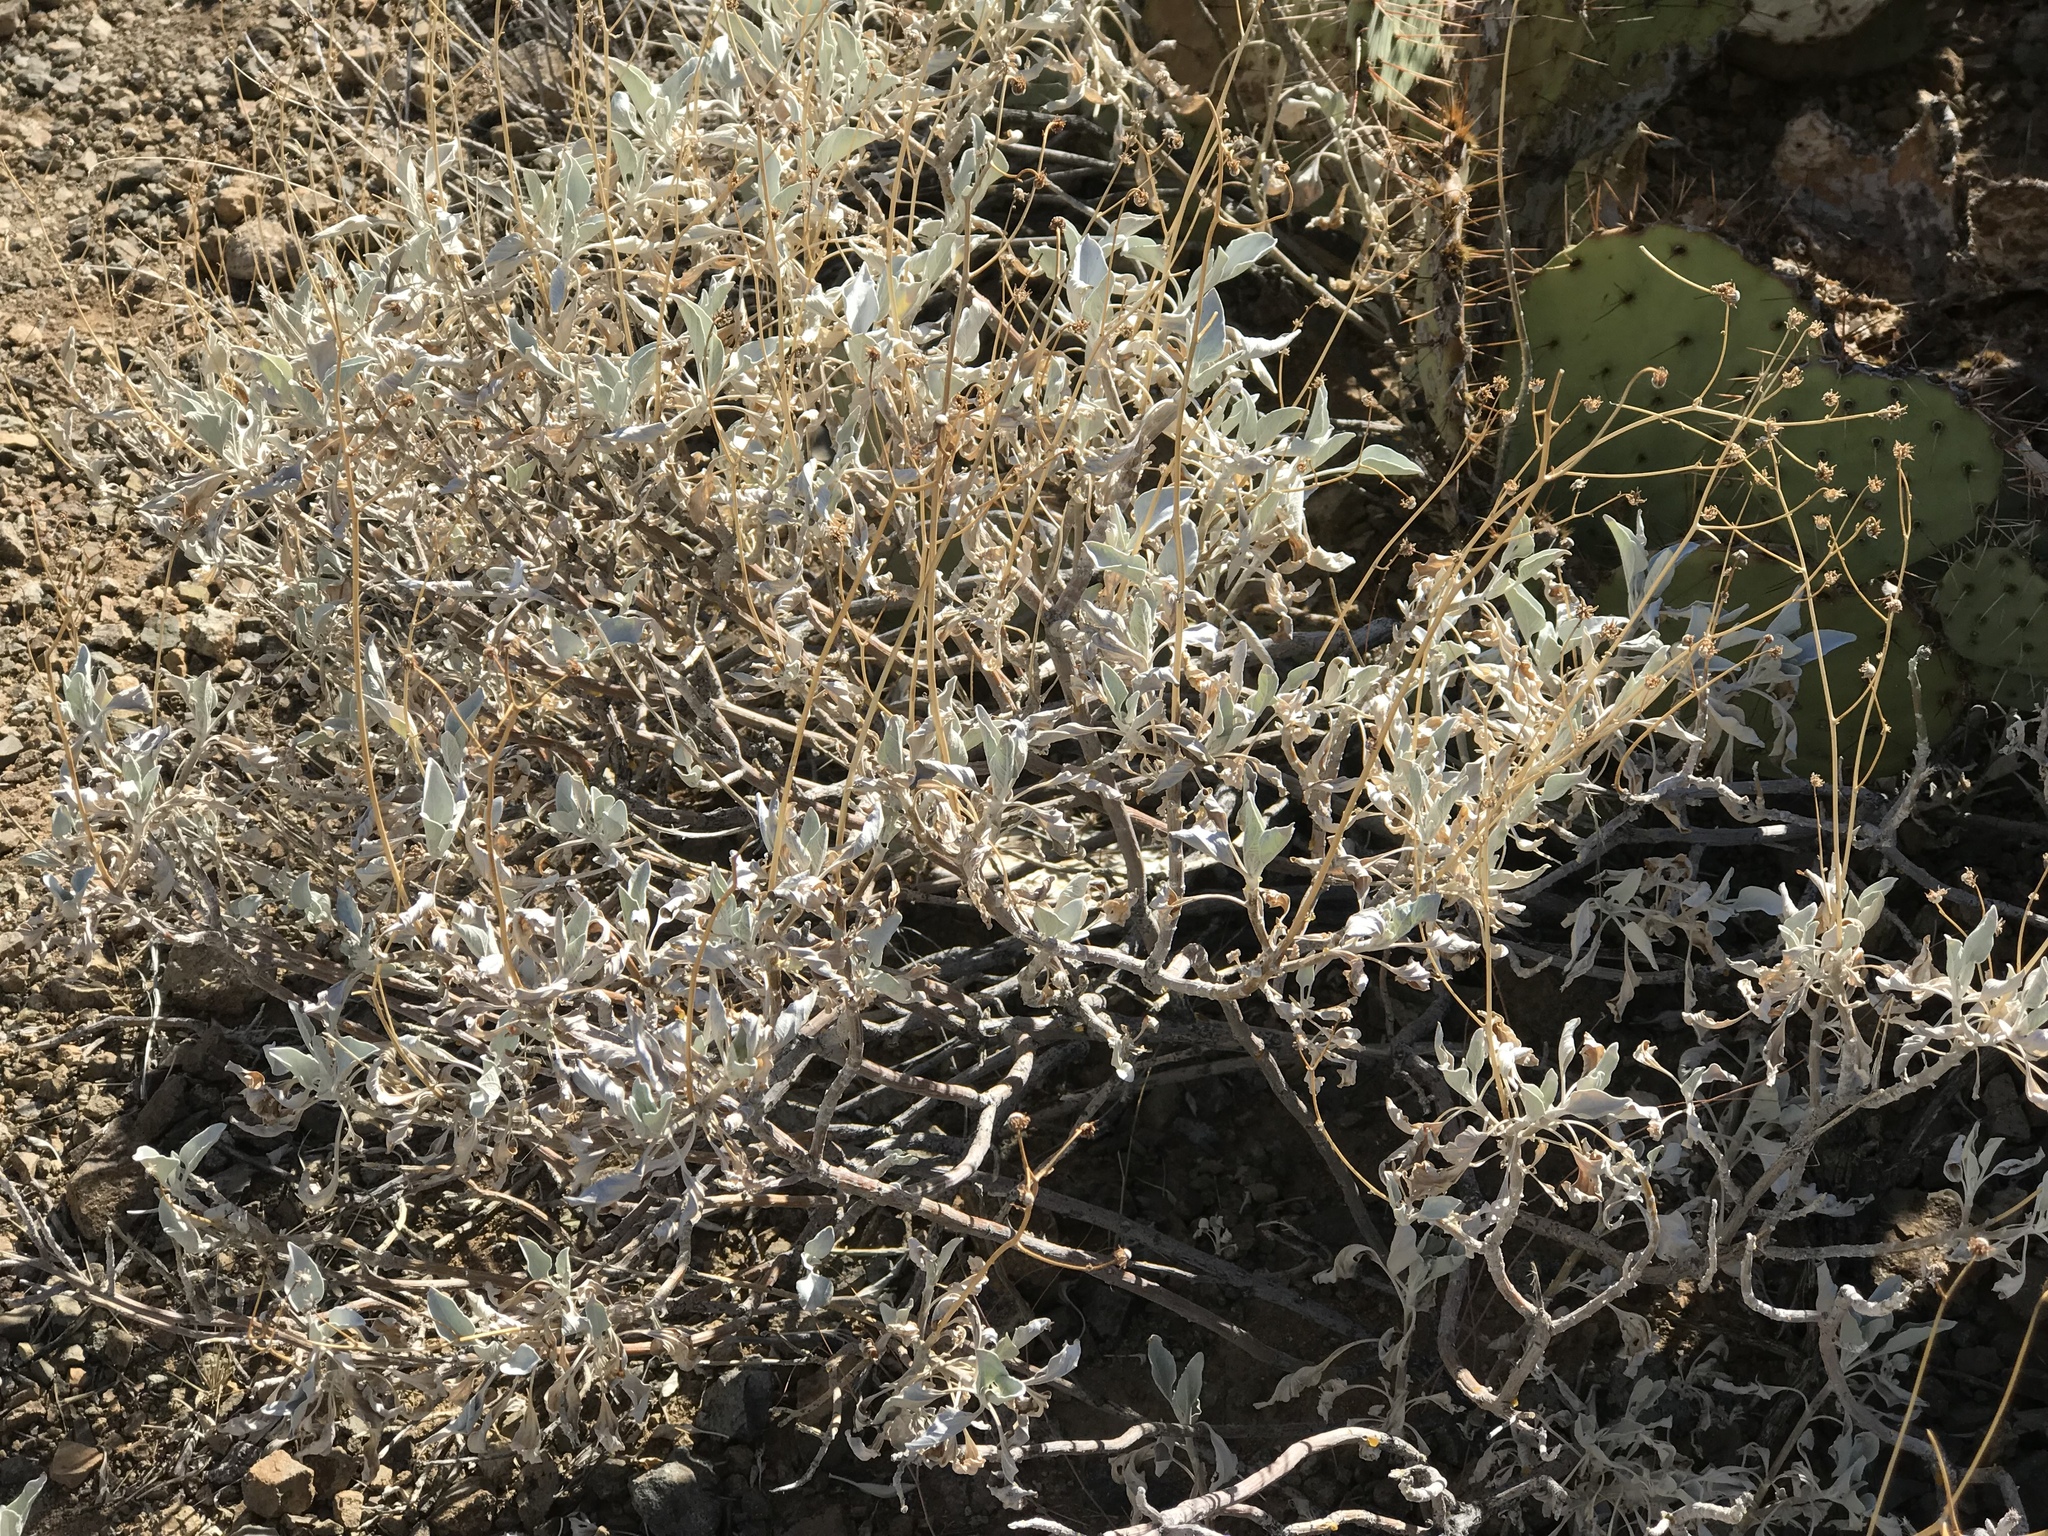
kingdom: Plantae
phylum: Tracheophyta
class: Magnoliopsida
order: Asterales
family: Asteraceae
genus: Encelia
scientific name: Encelia farinosa
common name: Brittlebush
